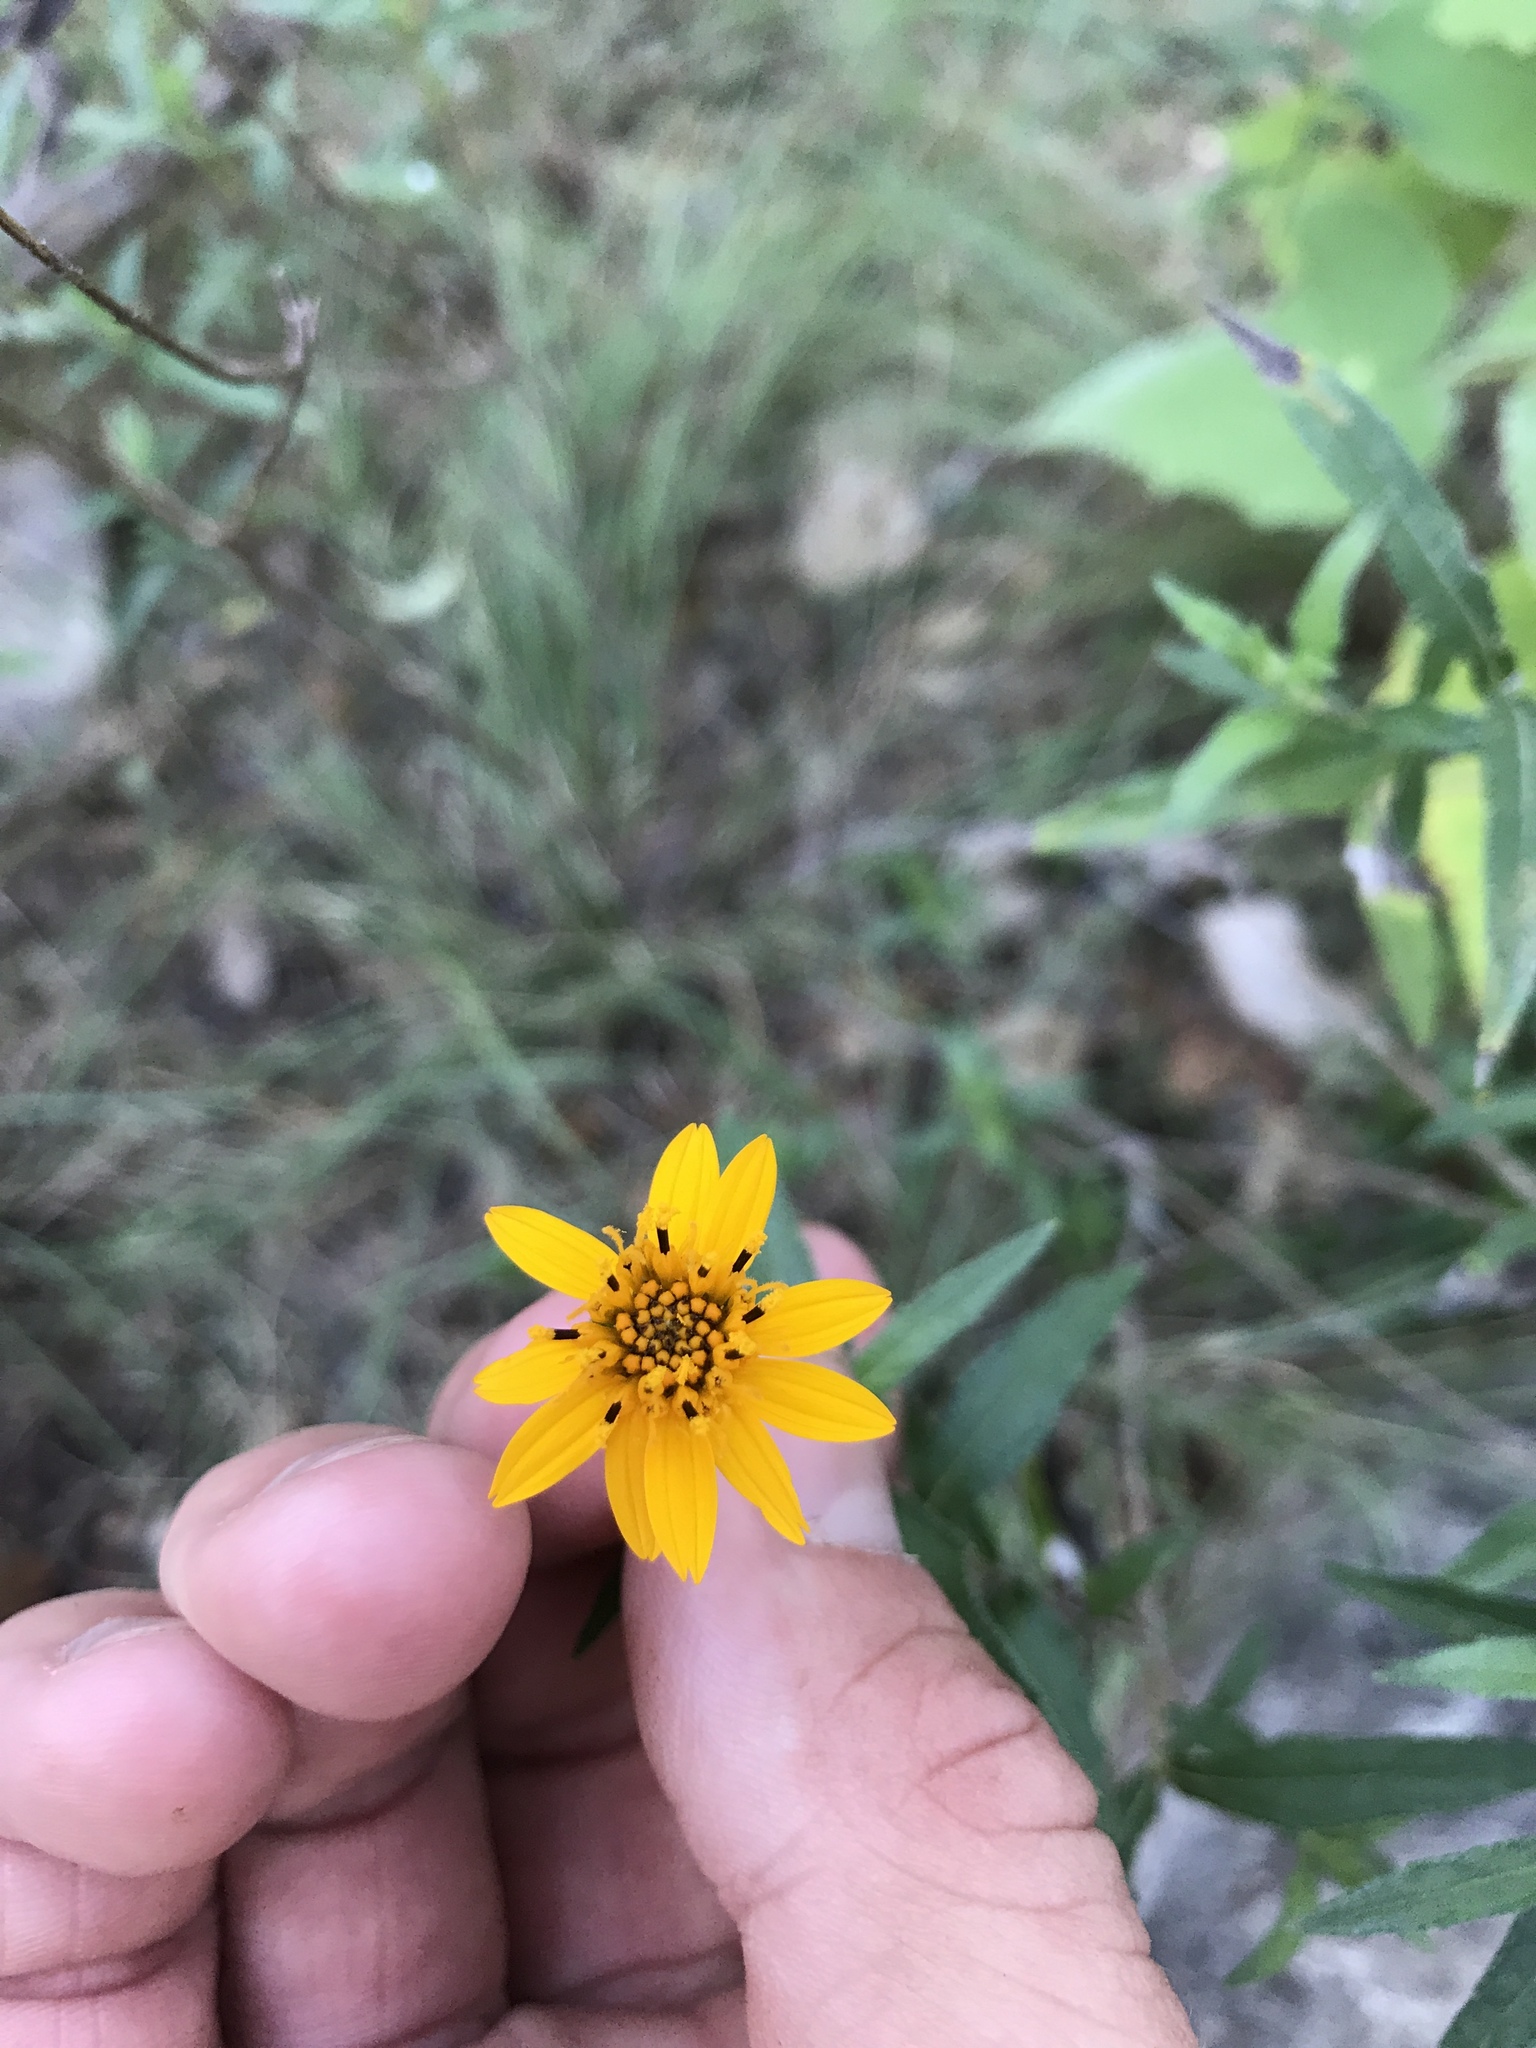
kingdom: Plantae
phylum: Tracheophyta
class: Magnoliopsida
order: Asterales
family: Asteraceae
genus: Wedelia
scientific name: Wedelia acapulcensis
